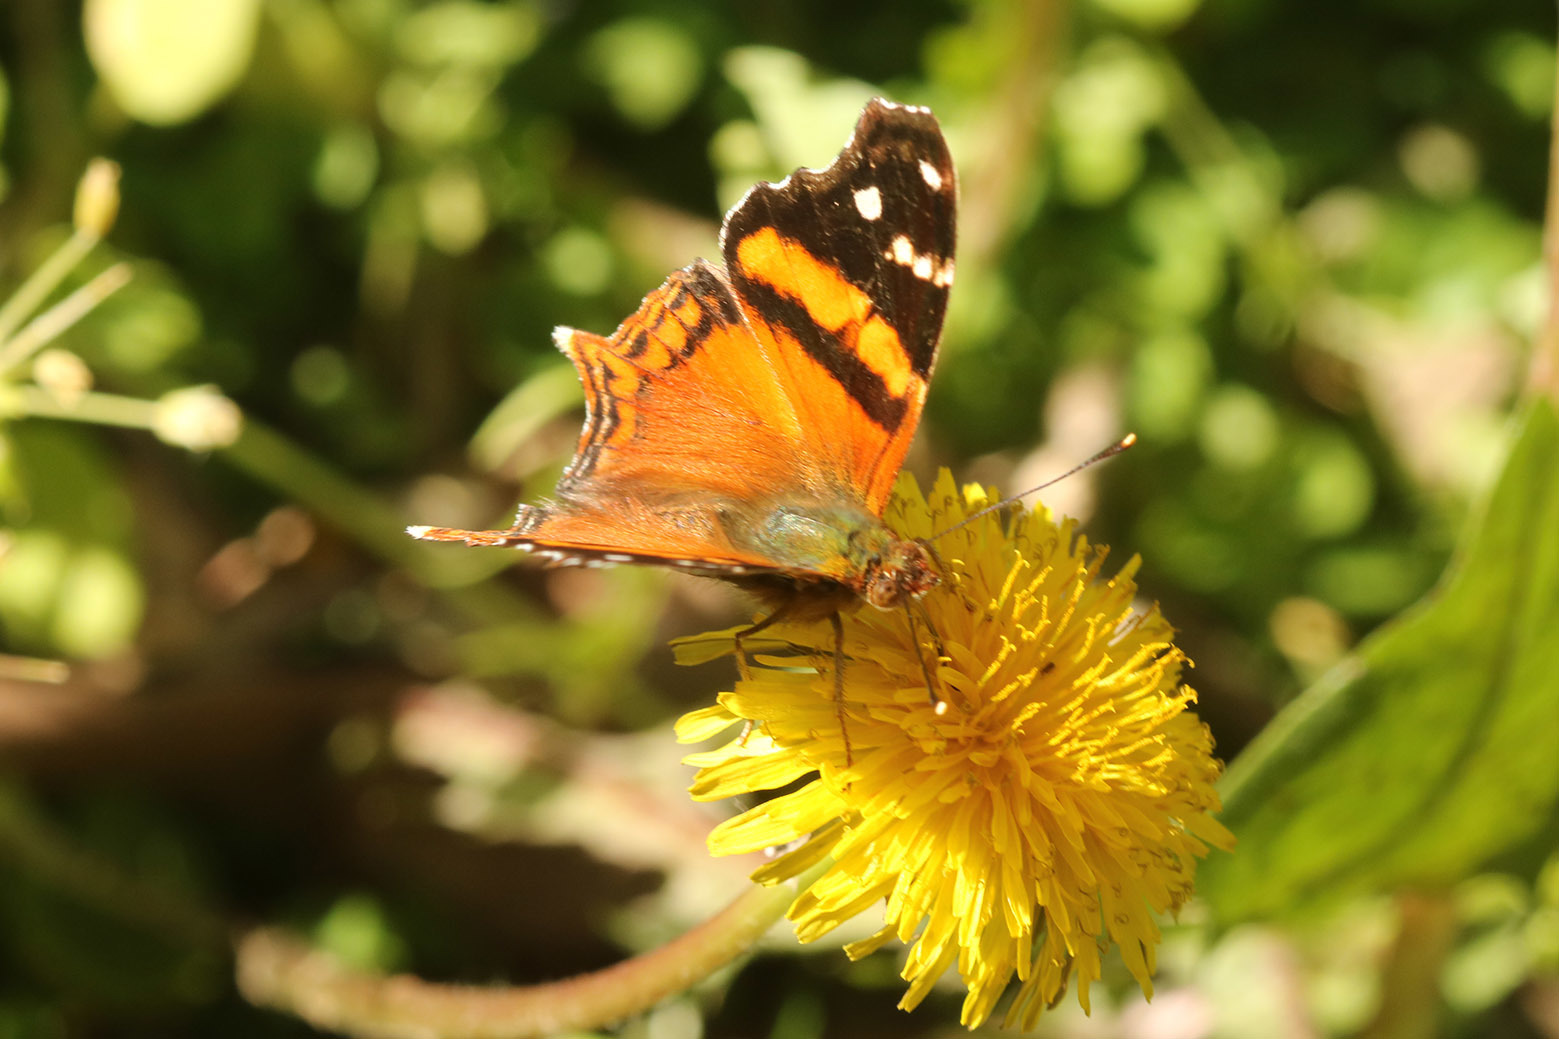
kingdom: Animalia
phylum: Arthropoda
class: Insecta
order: Lepidoptera
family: Nymphalidae
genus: Hypanartia
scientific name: Hypanartia bella
